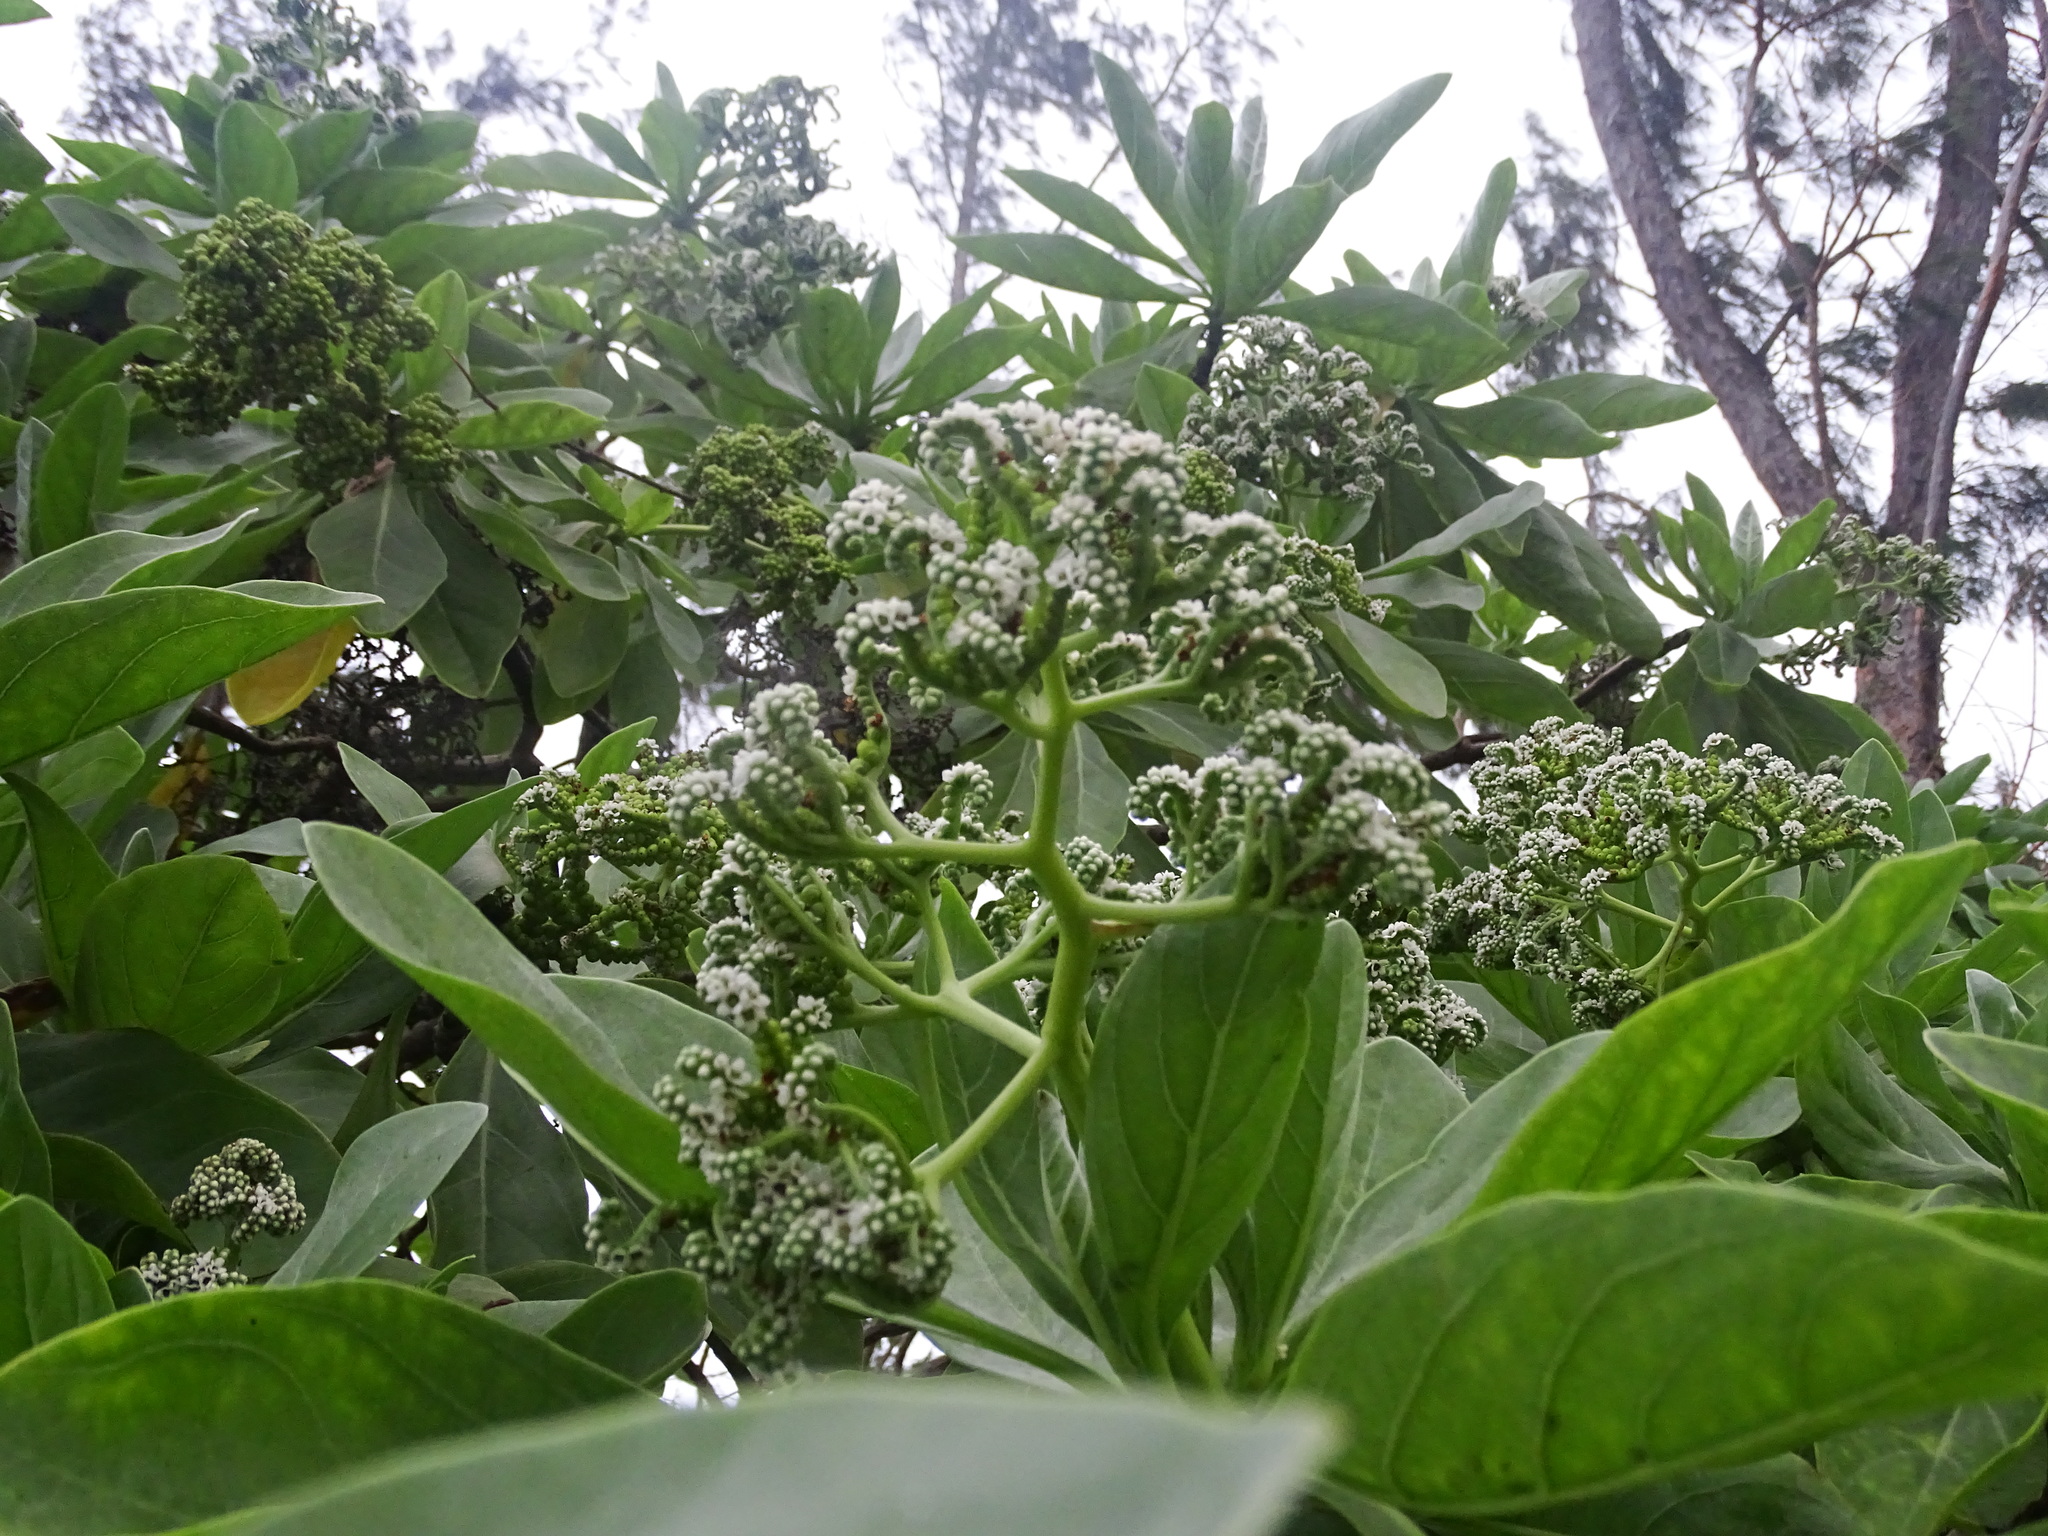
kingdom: Plantae
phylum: Tracheophyta
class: Magnoliopsida
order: Boraginales
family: Heliotropiaceae
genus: Heliotropium
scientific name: Heliotropium velutinum
